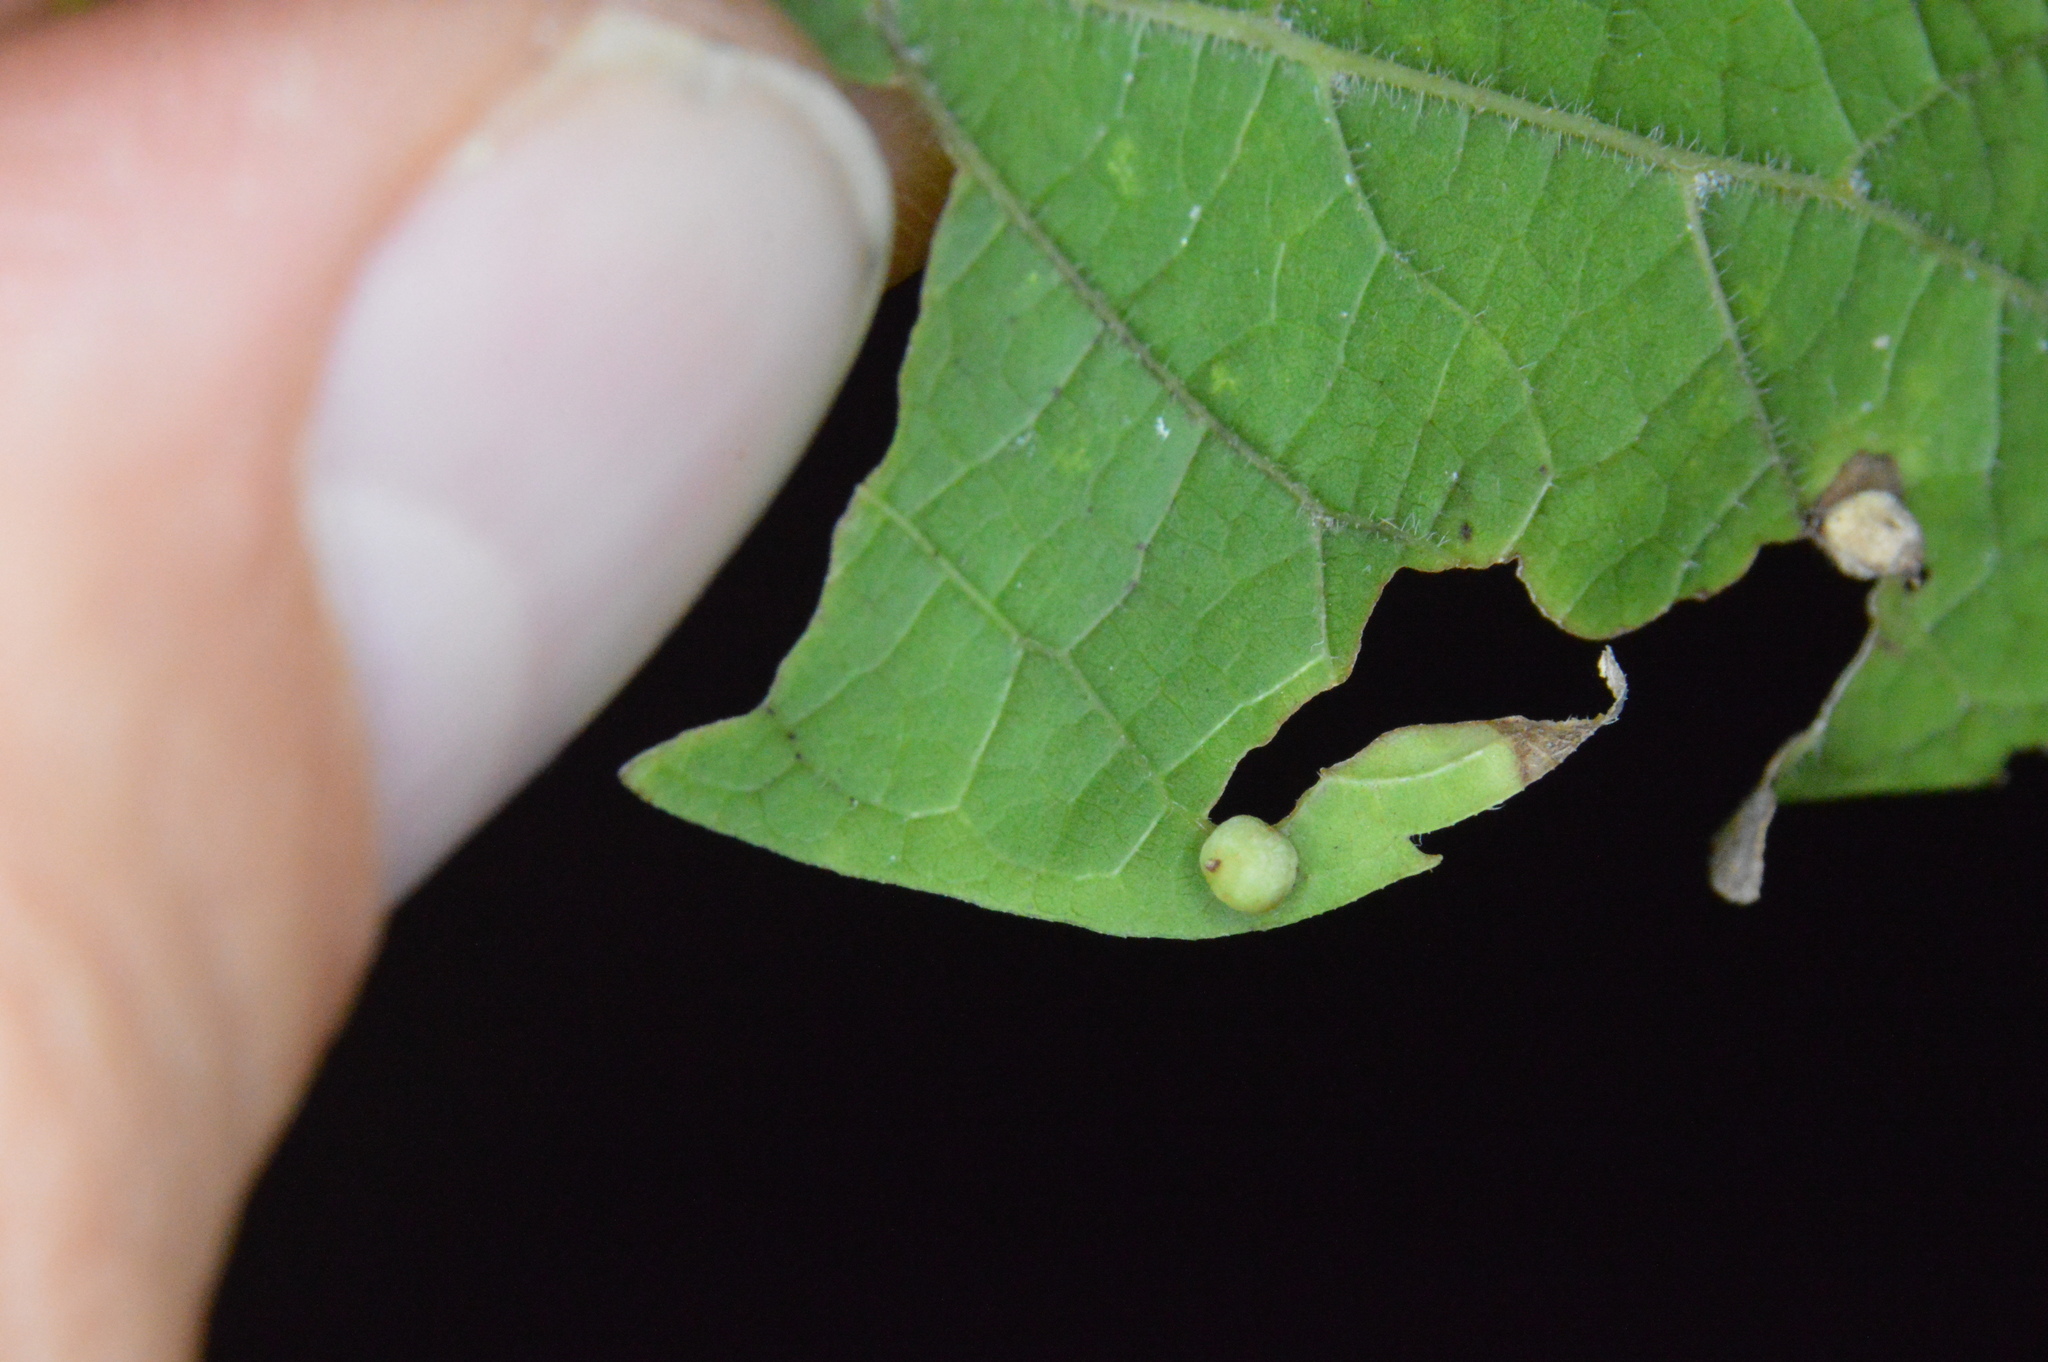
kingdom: Animalia
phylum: Arthropoda
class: Insecta
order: Diptera
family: Cecidomyiidae
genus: Celticecis
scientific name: Celticecis globosa
